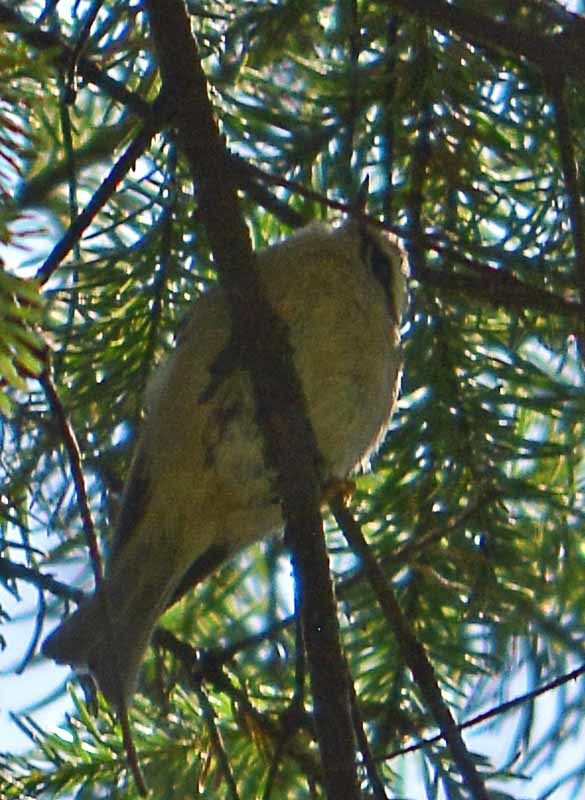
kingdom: Animalia
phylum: Chordata
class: Aves
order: Passeriformes
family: Regulidae
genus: Regulus
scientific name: Regulus satrapa
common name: Golden-crowned kinglet
